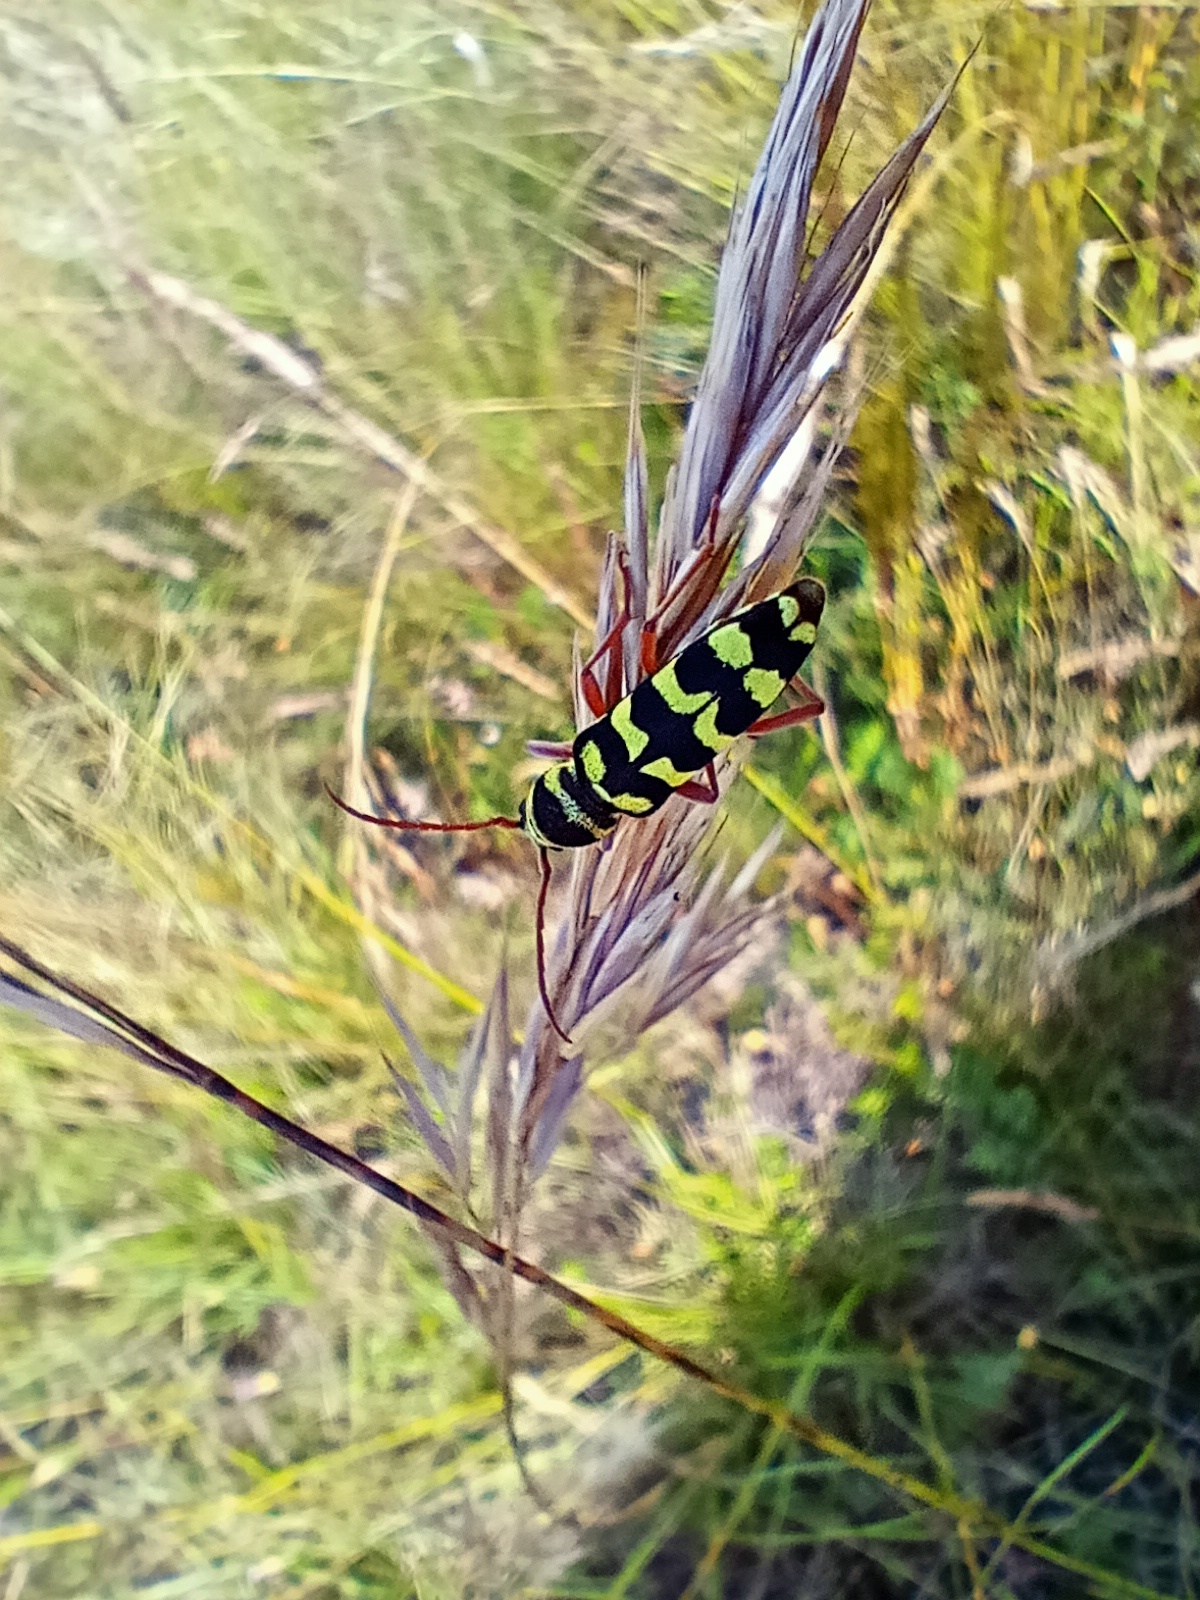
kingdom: Animalia
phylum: Arthropoda
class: Insecta
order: Coleoptera
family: Cerambycidae
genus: Plagionotus
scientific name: Plagionotus floralis
